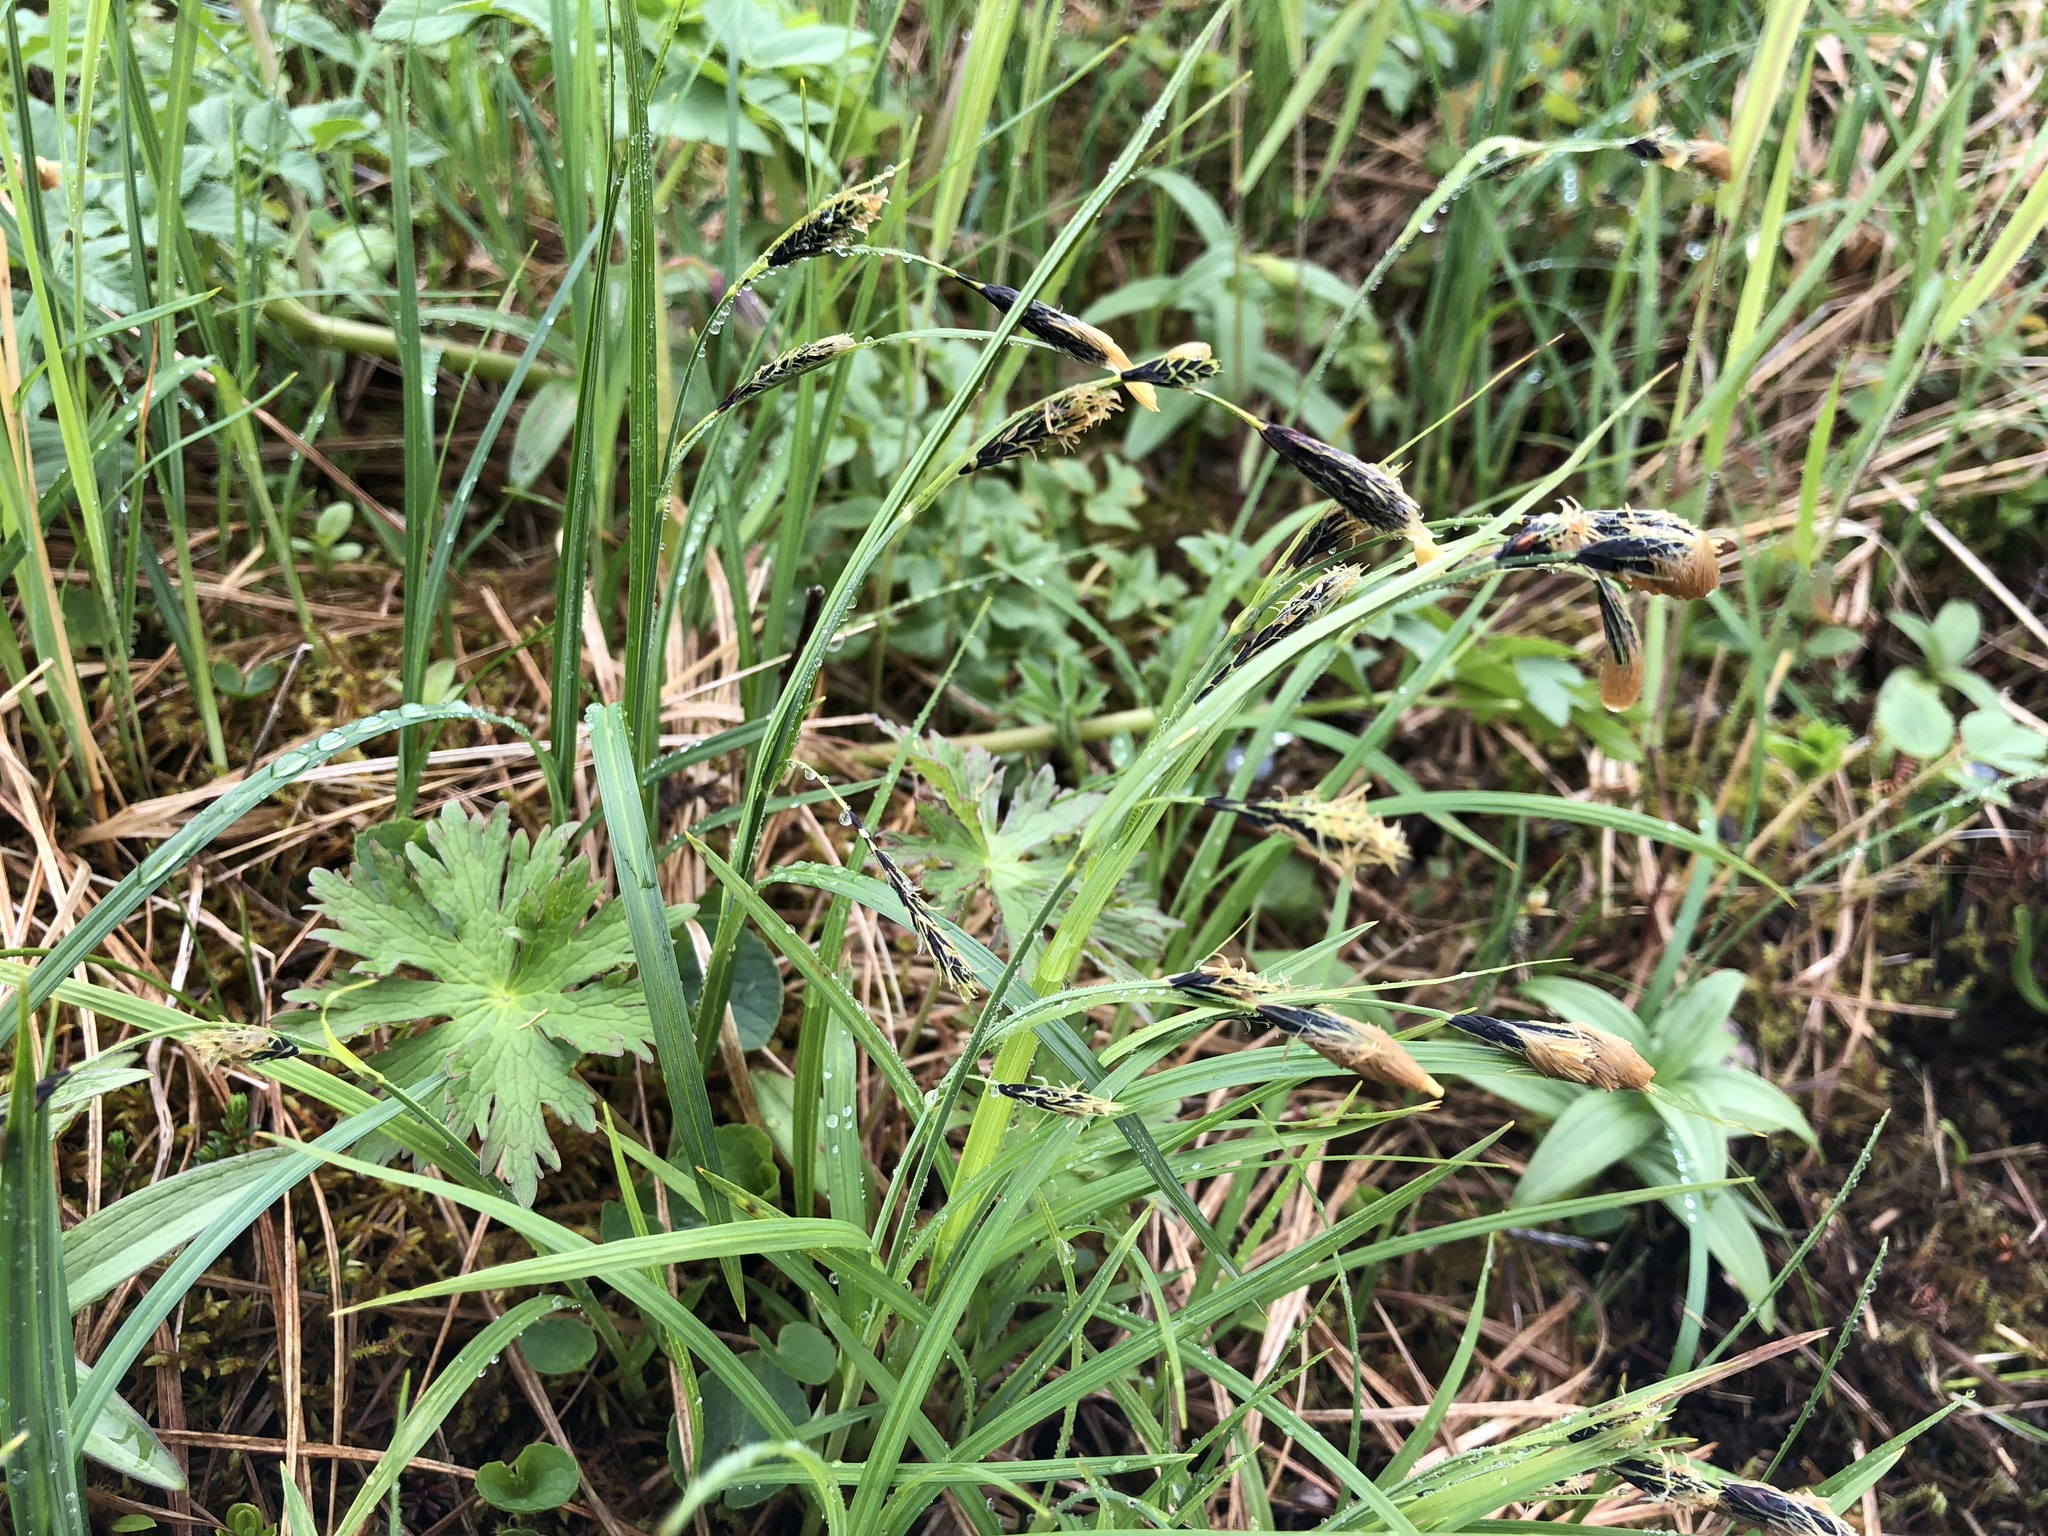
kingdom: Plantae
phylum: Tracheophyta
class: Liliopsida
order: Poales
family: Cyperaceae
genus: Carex
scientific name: Carex macrochaeta
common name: Alaska large awn sedge
